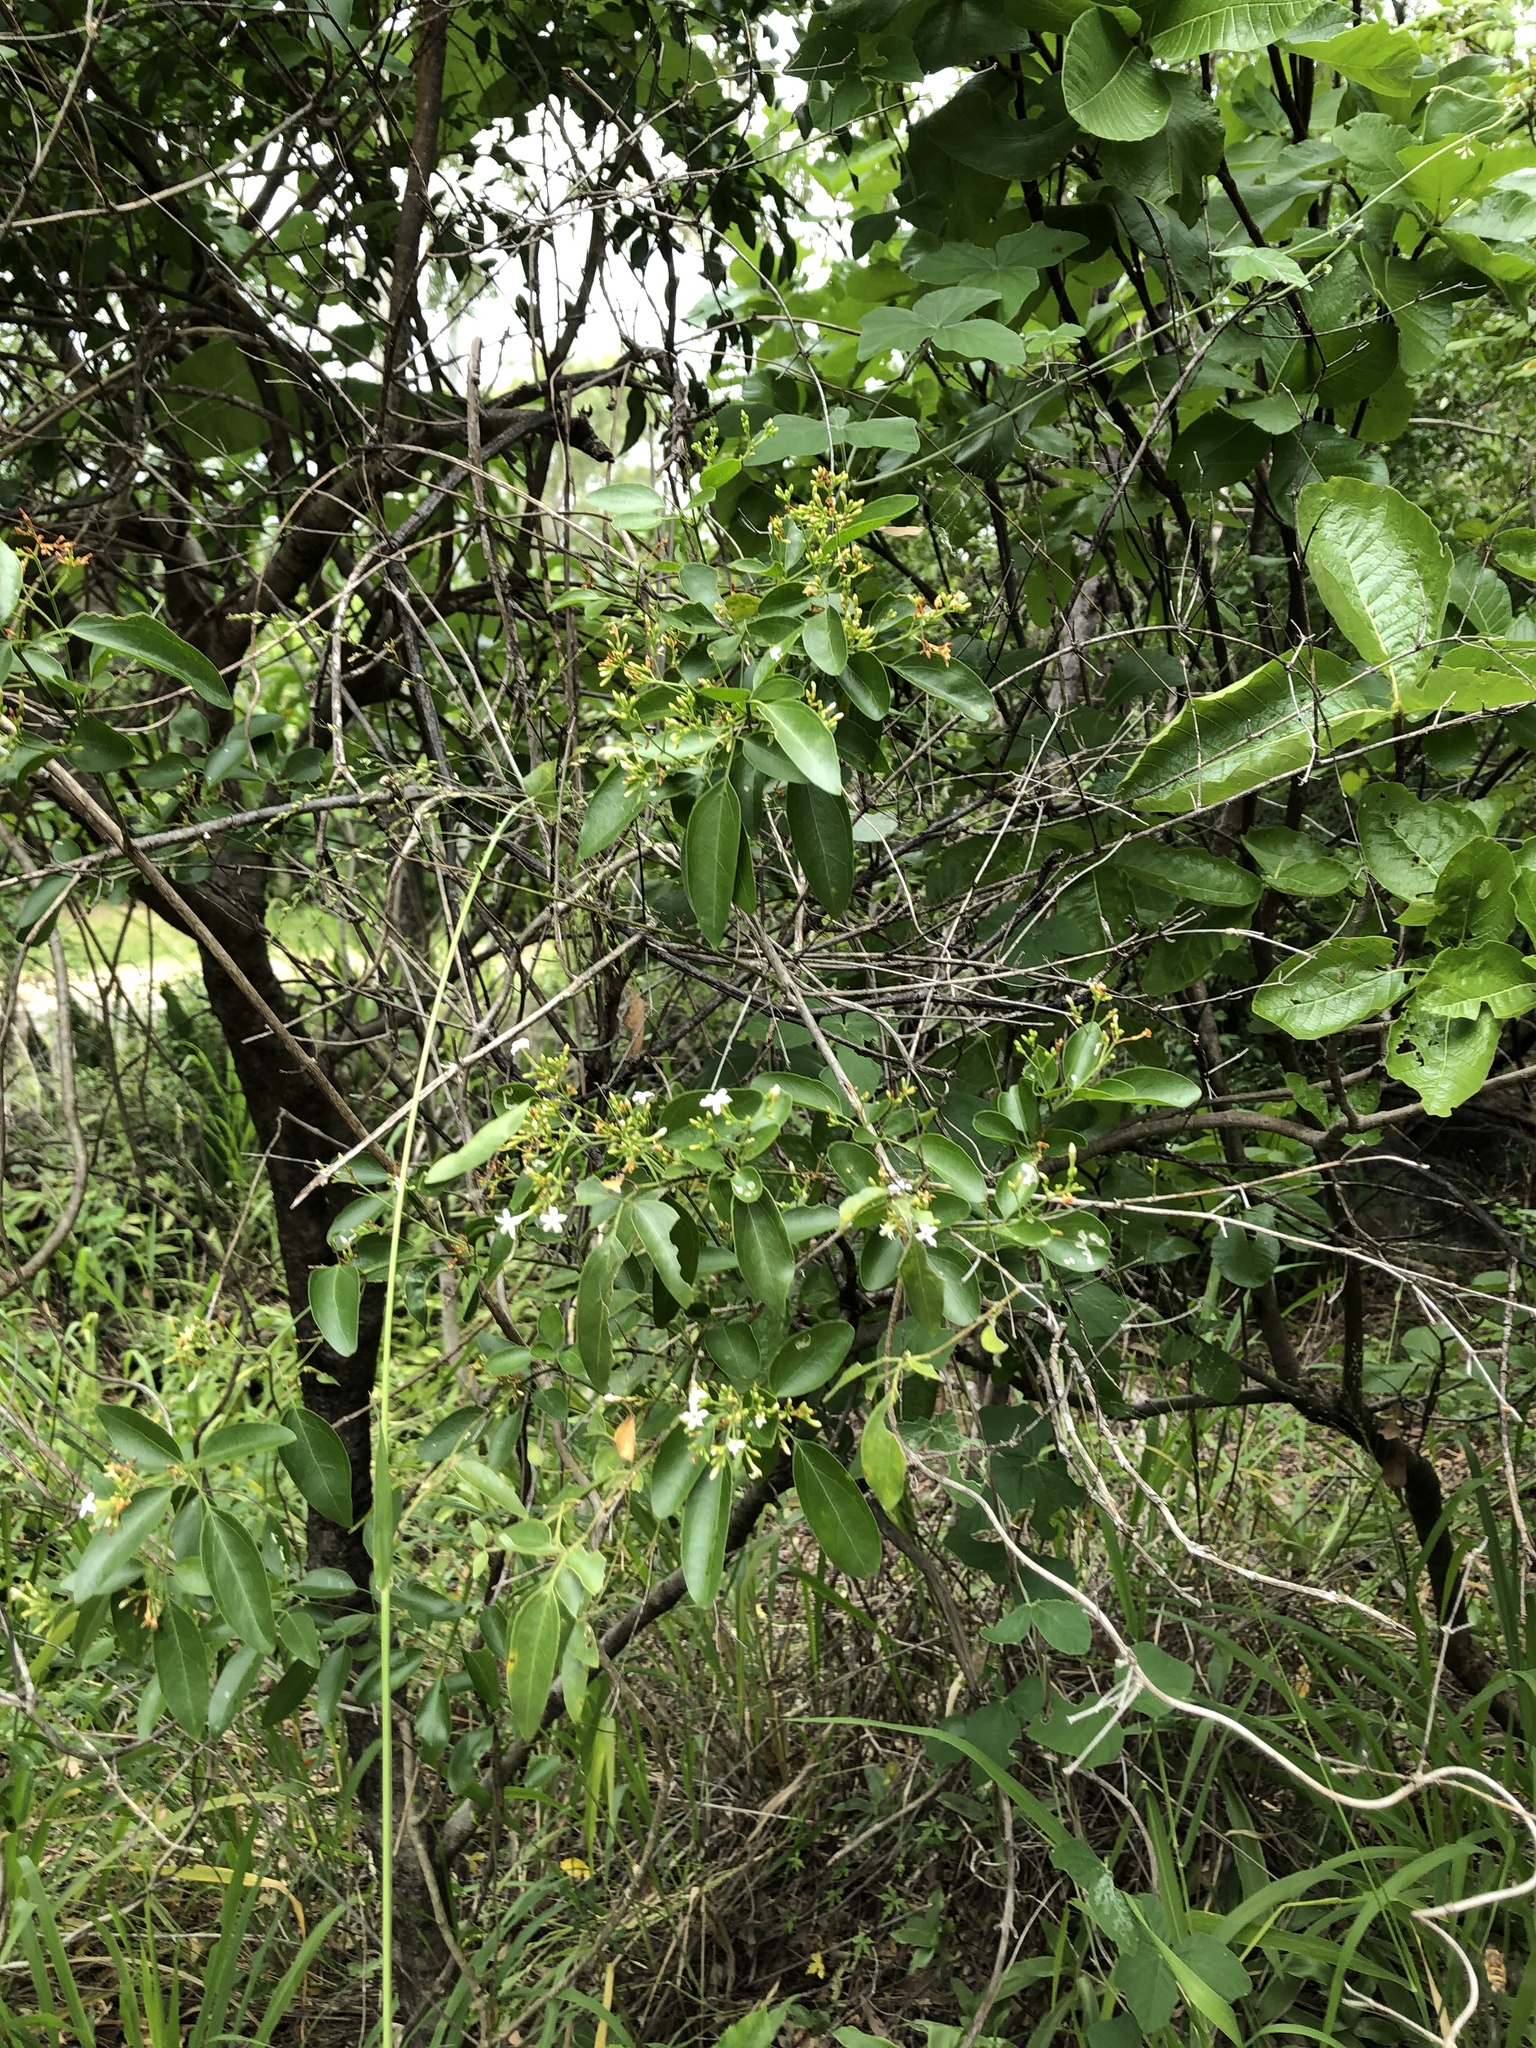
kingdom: Plantae
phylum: Tracheophyta
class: Magnoliopsida
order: Lamiales
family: Oleaceae
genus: Jasminum
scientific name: Jasminum didymum
